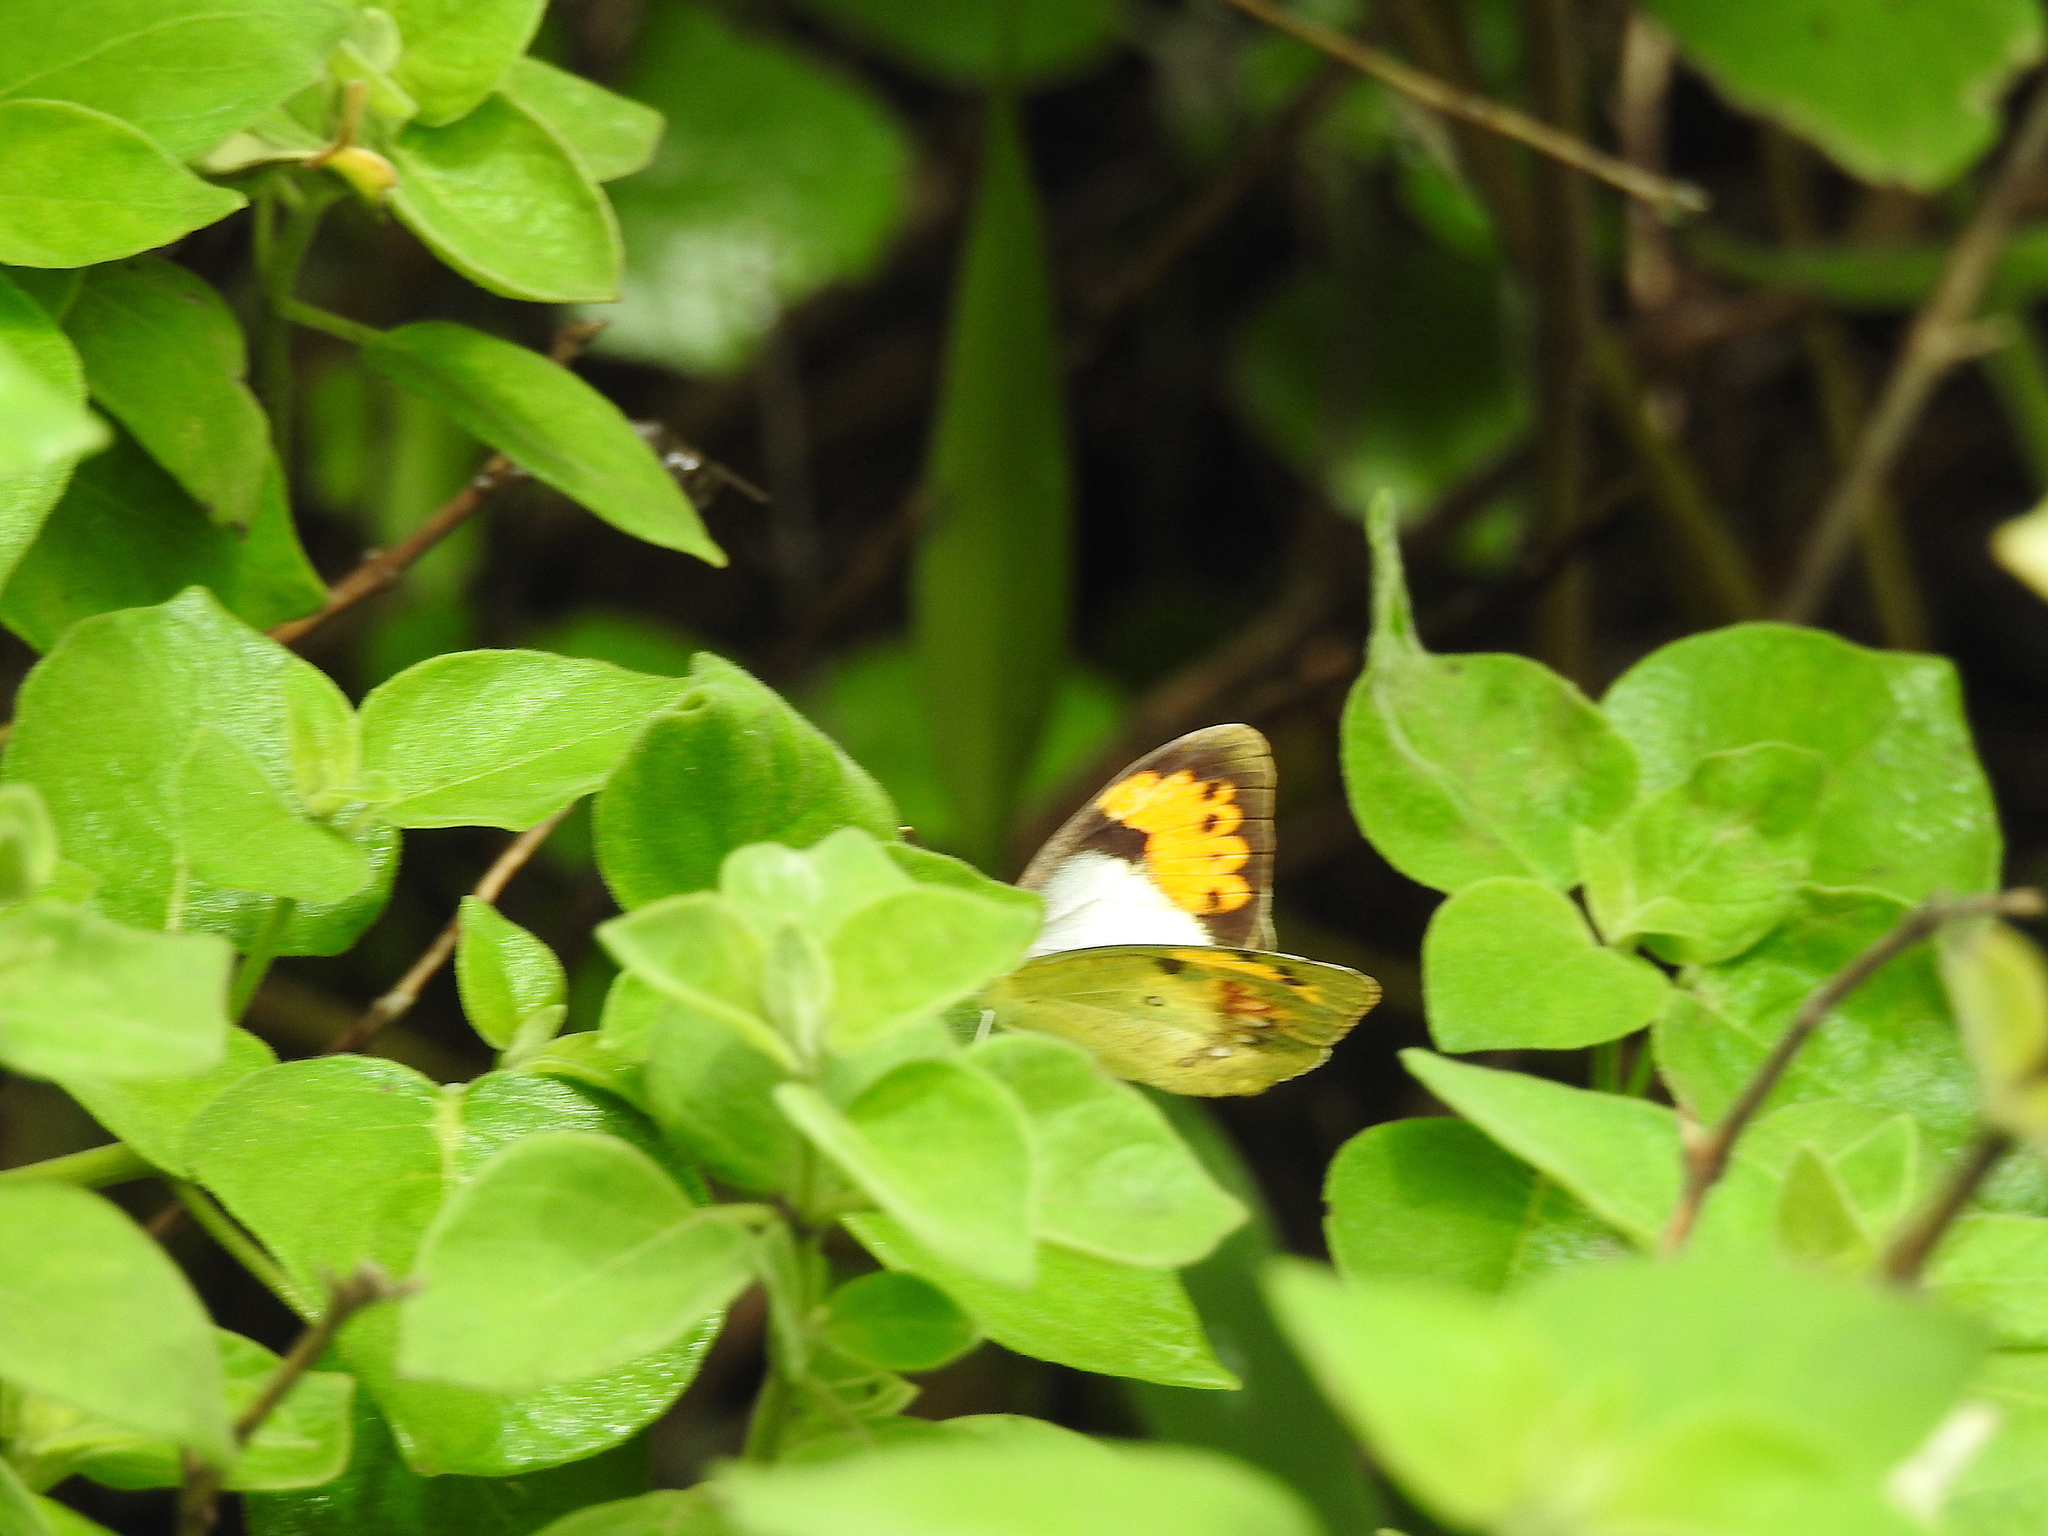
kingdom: Animalia
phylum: Arthropoda
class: Insecta
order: Lepidoptera
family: Pieridae
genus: Ixias
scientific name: Ixias marianne
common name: White orange tip
